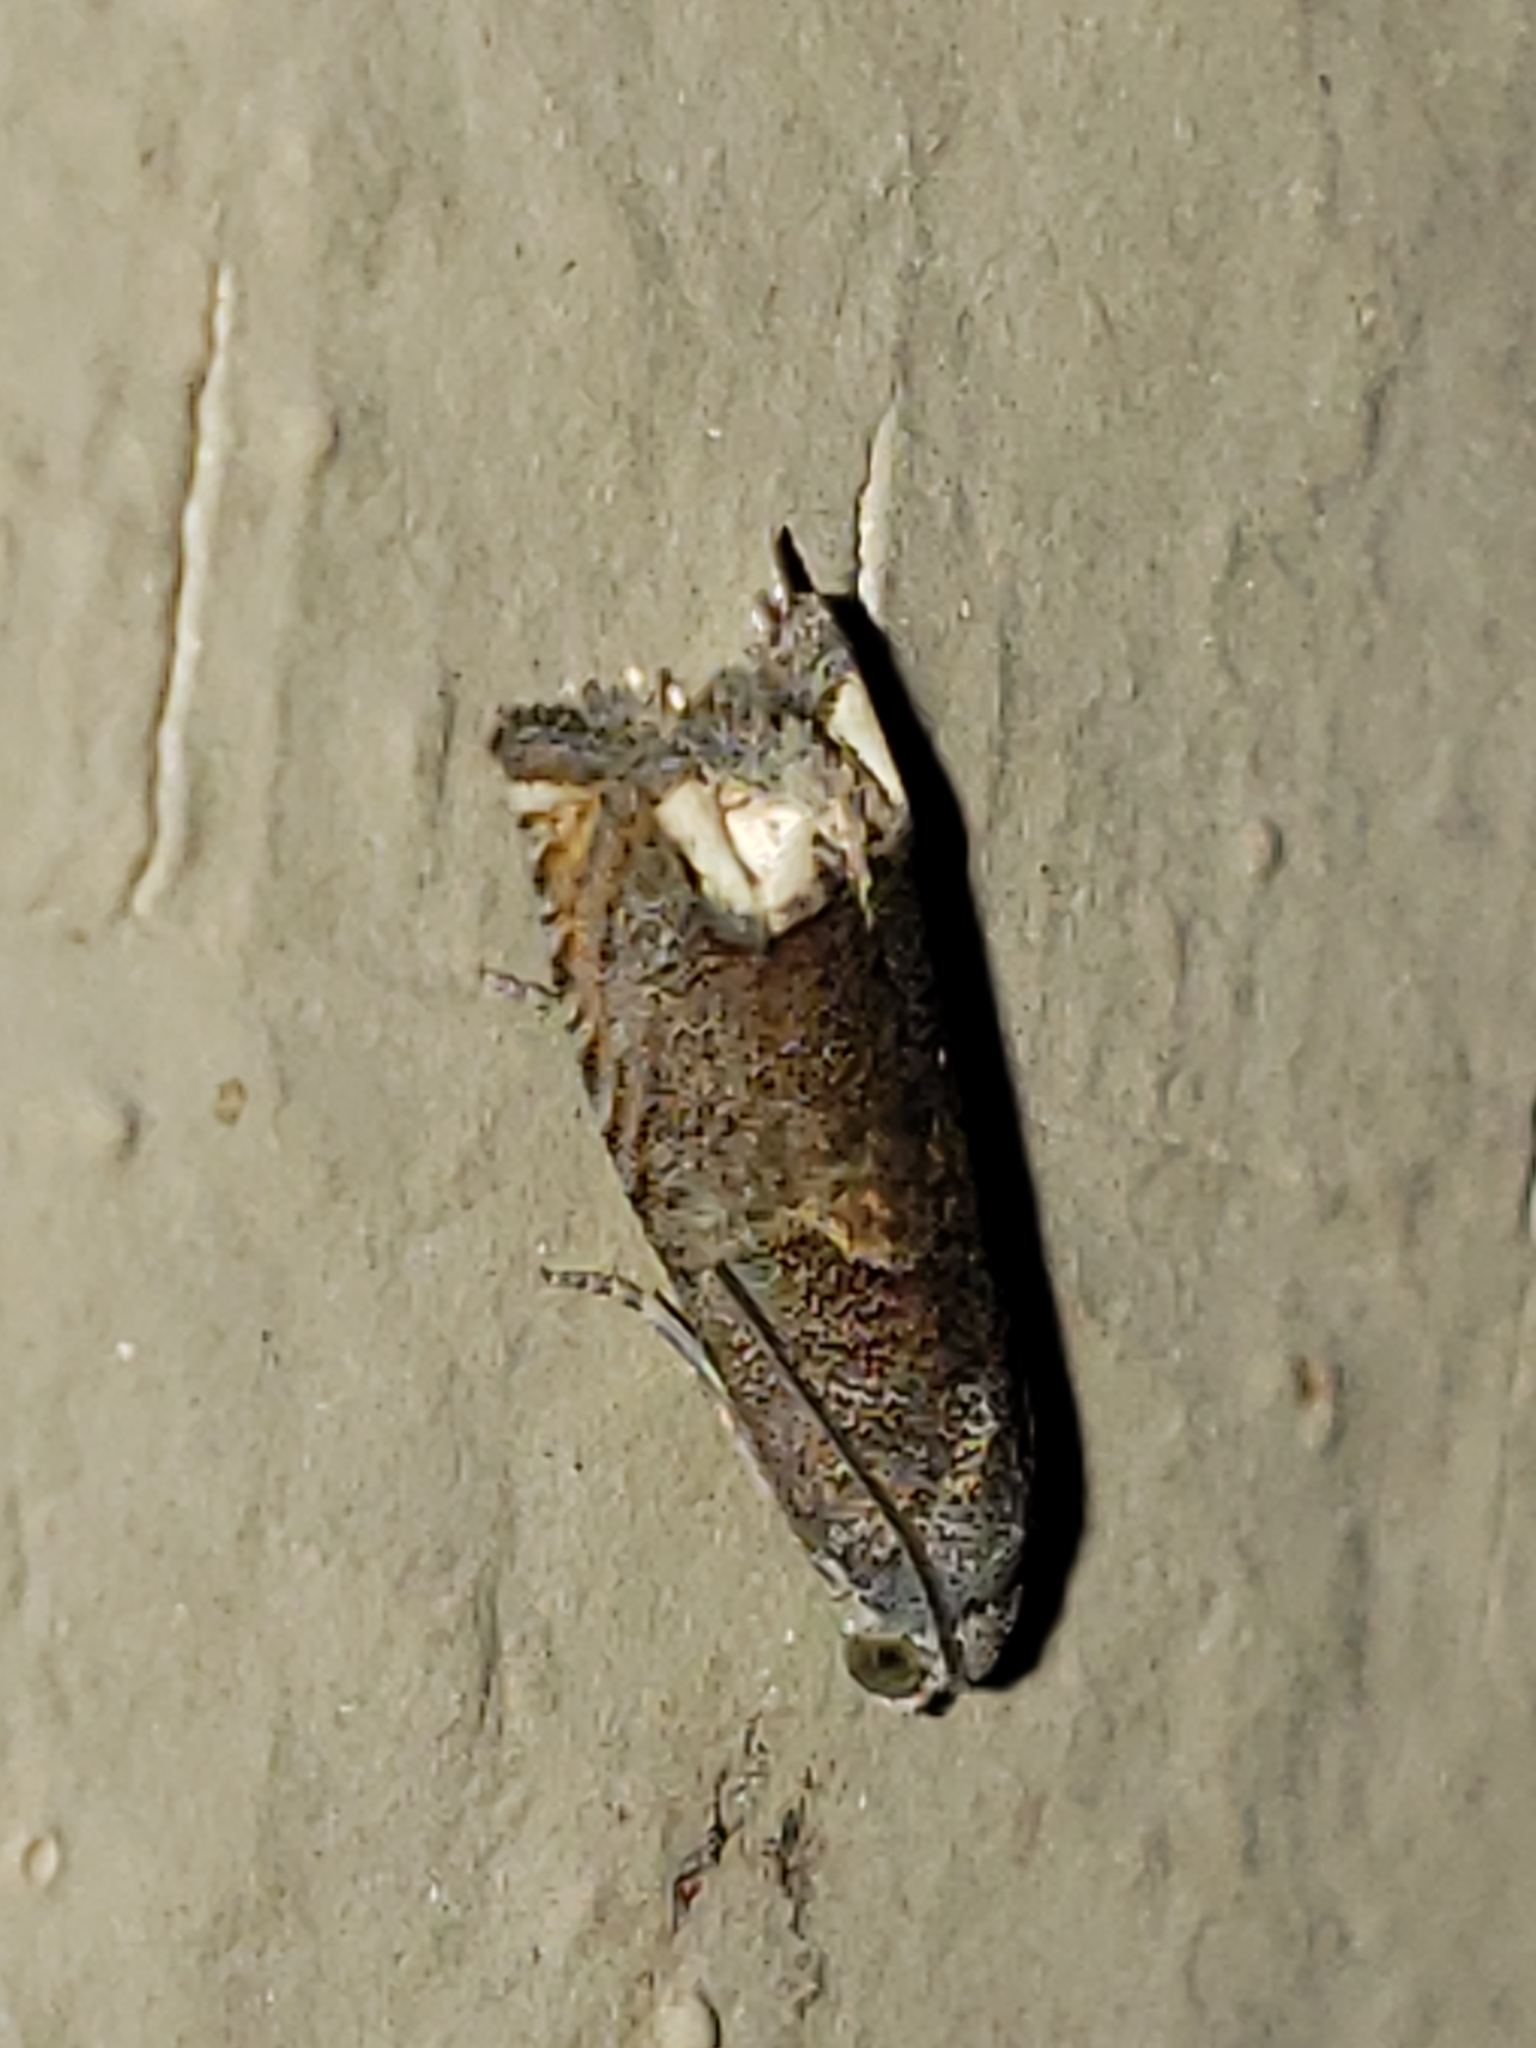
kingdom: Animalia
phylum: Arthropoda
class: Insecta
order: Lepidoptera
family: Tortricidae
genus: Epiblema
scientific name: Epiblema strenuana
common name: Ragweed borer moth
